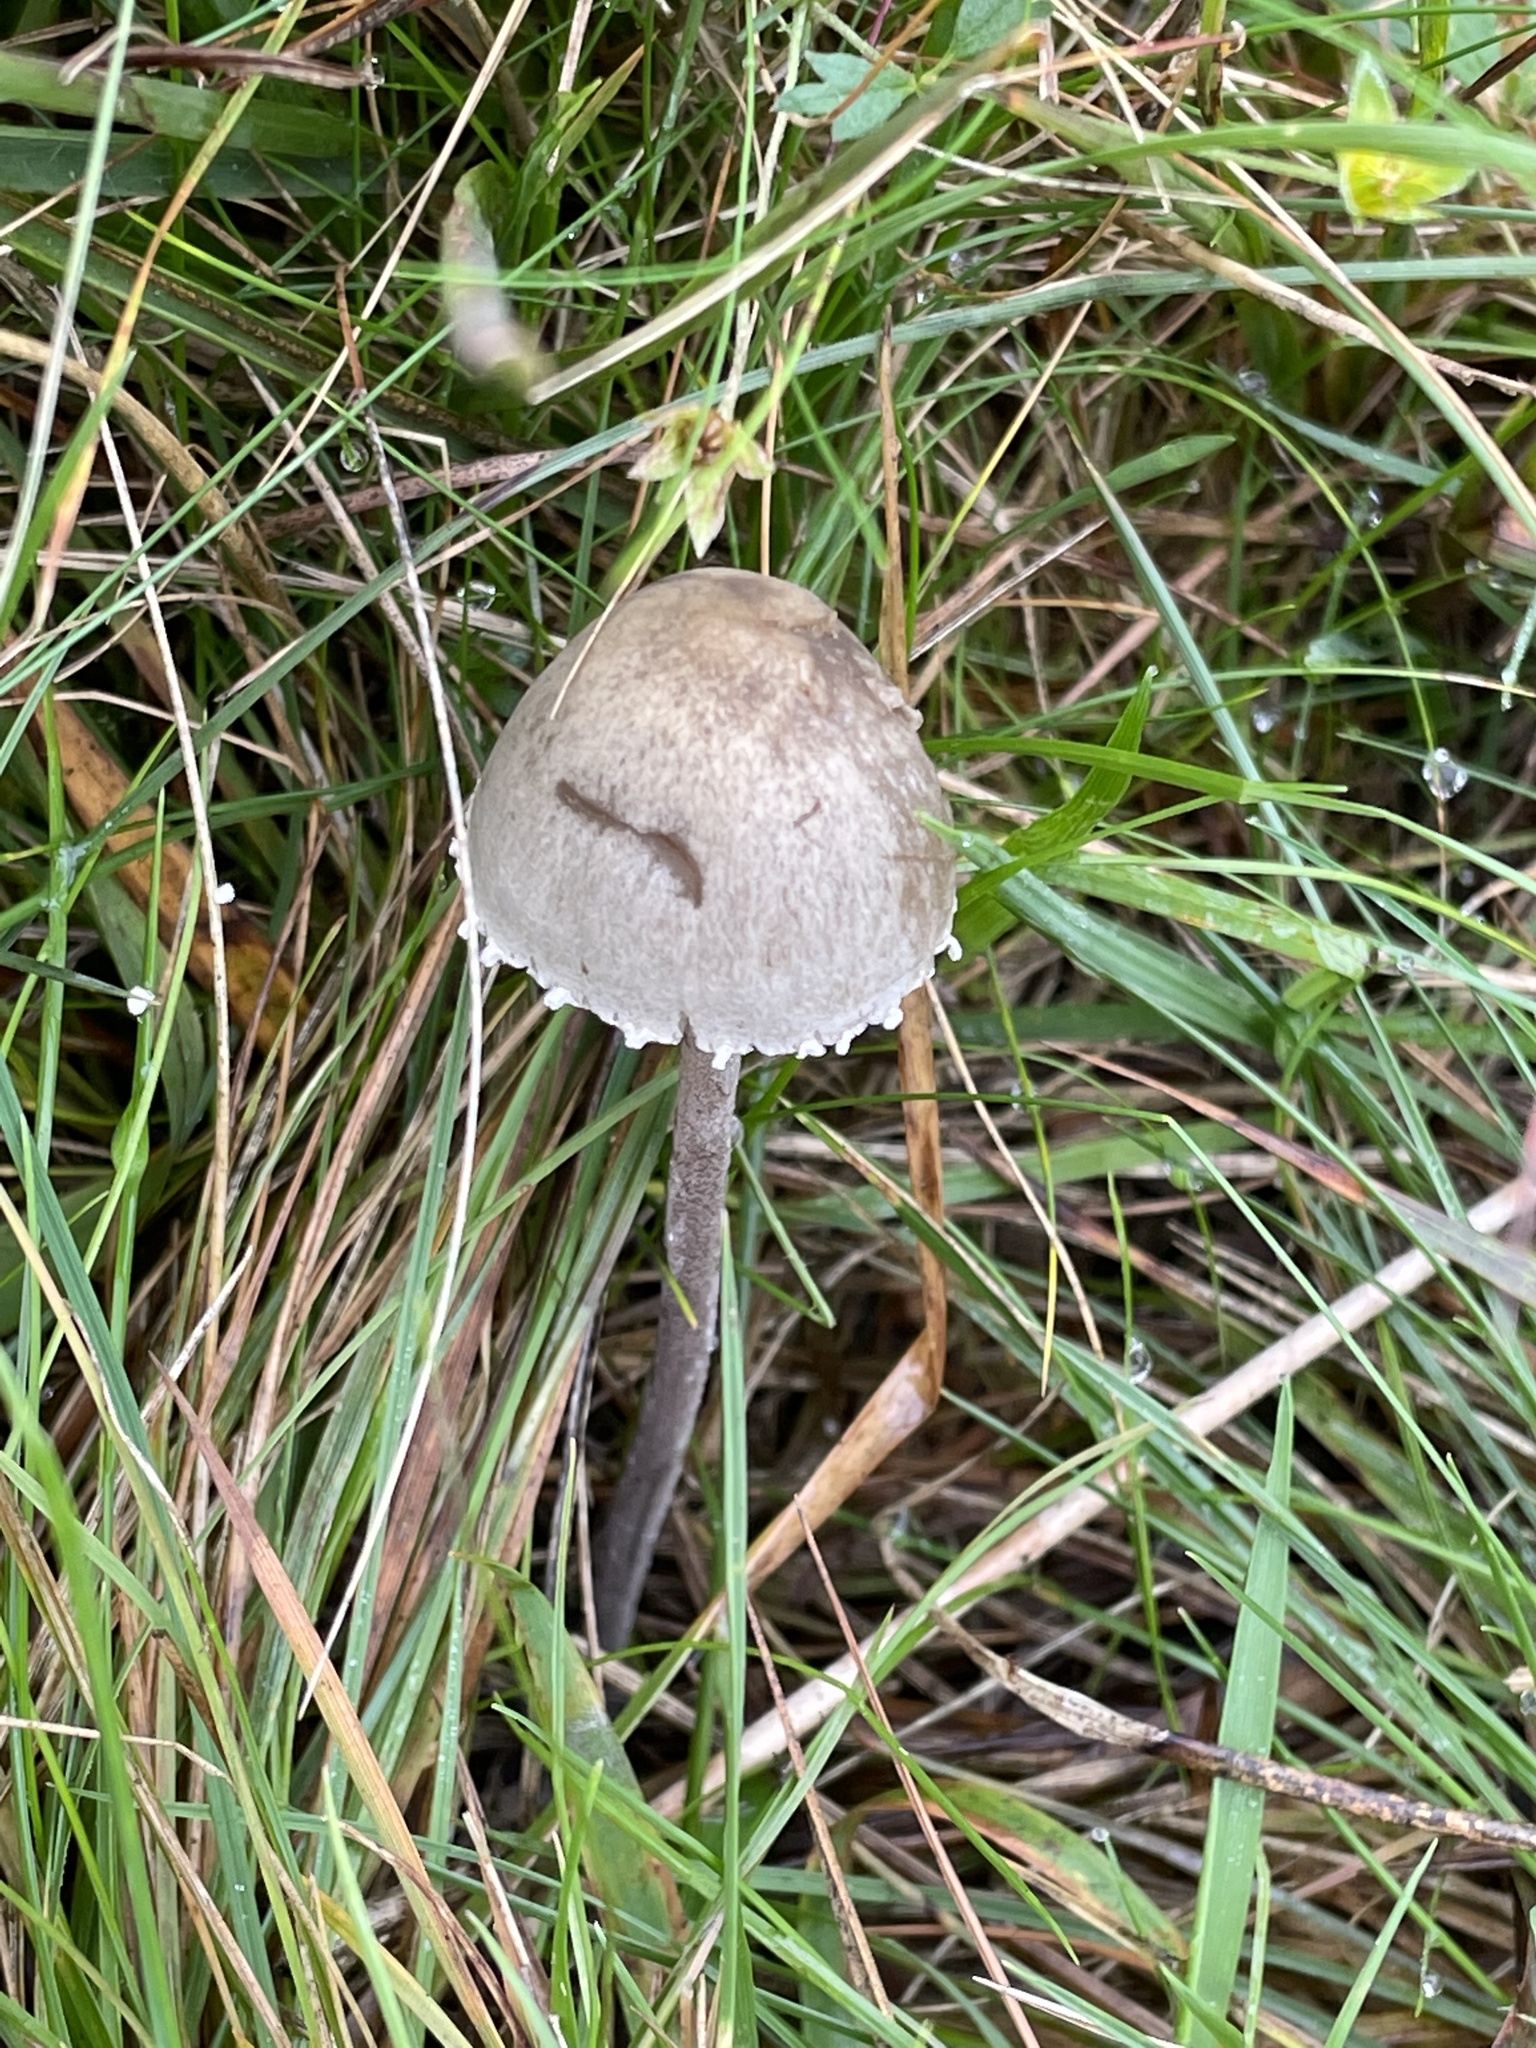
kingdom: Fungi
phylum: Basidiomycota
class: Agaricomycetes
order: Agaricales
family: Bolbitiaceae
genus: Panaeolus
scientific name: Panaeolus papilionaceus
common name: Petticoat mottlegill
